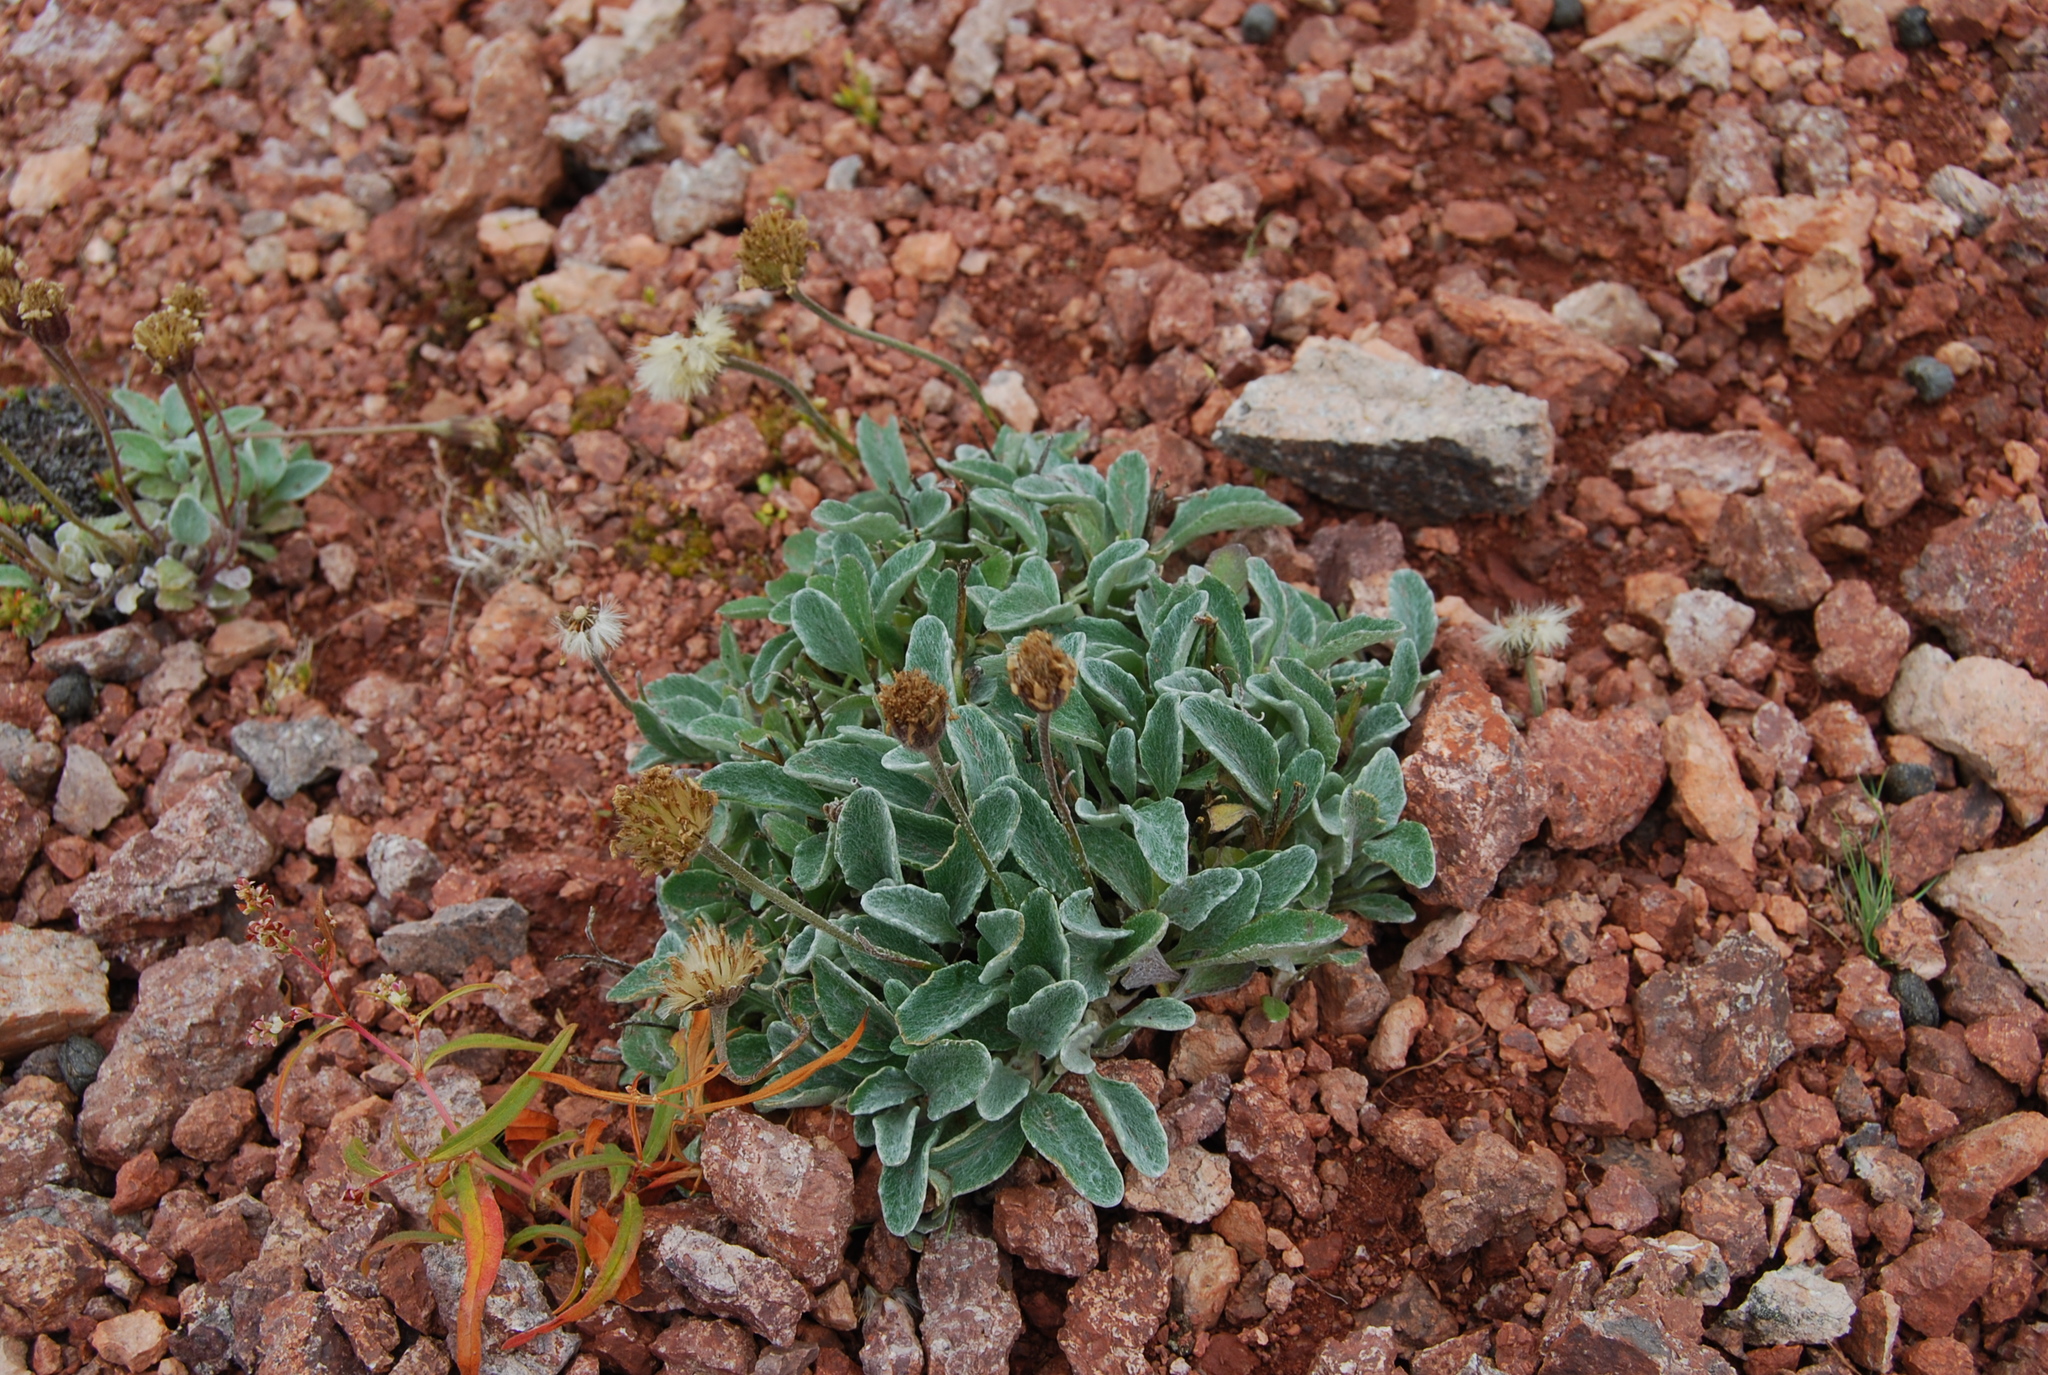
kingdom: Plantae
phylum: Tracheophyta
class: Magnoliopsida
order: Asterales
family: Asteraceae
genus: Tephroseris
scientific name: Tephroseris jacutica
